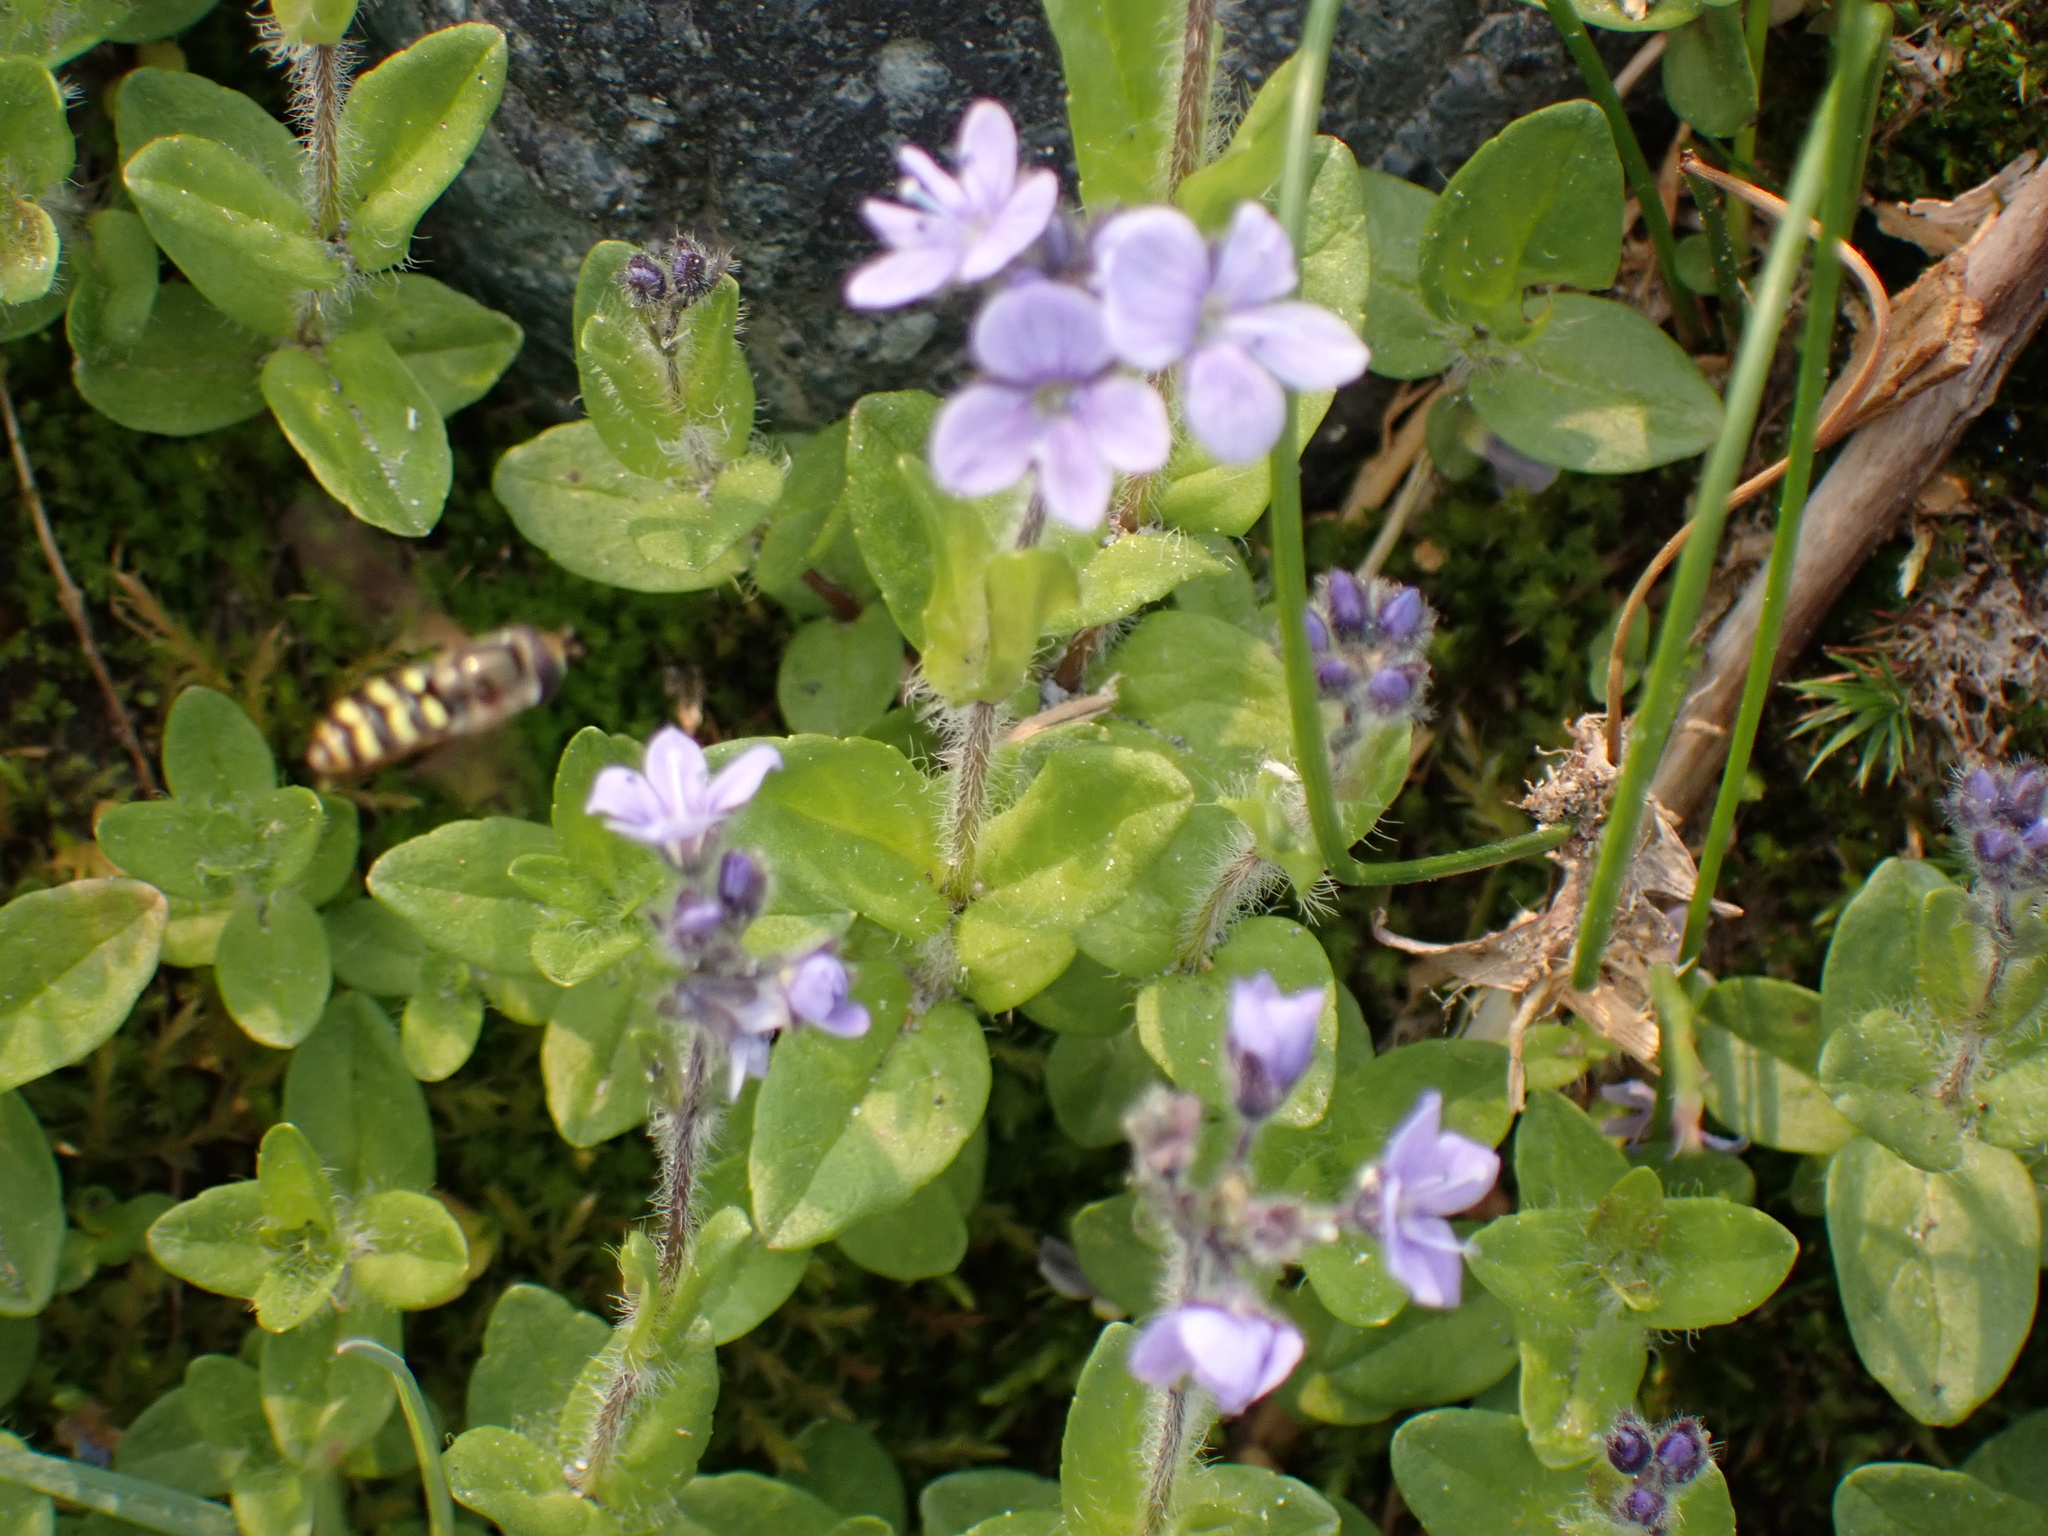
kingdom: Animalia
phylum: Arthropoda
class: Insecta
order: Diptera
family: Syrphidae
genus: Eupeodes
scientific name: Eupeodes fumipennis
